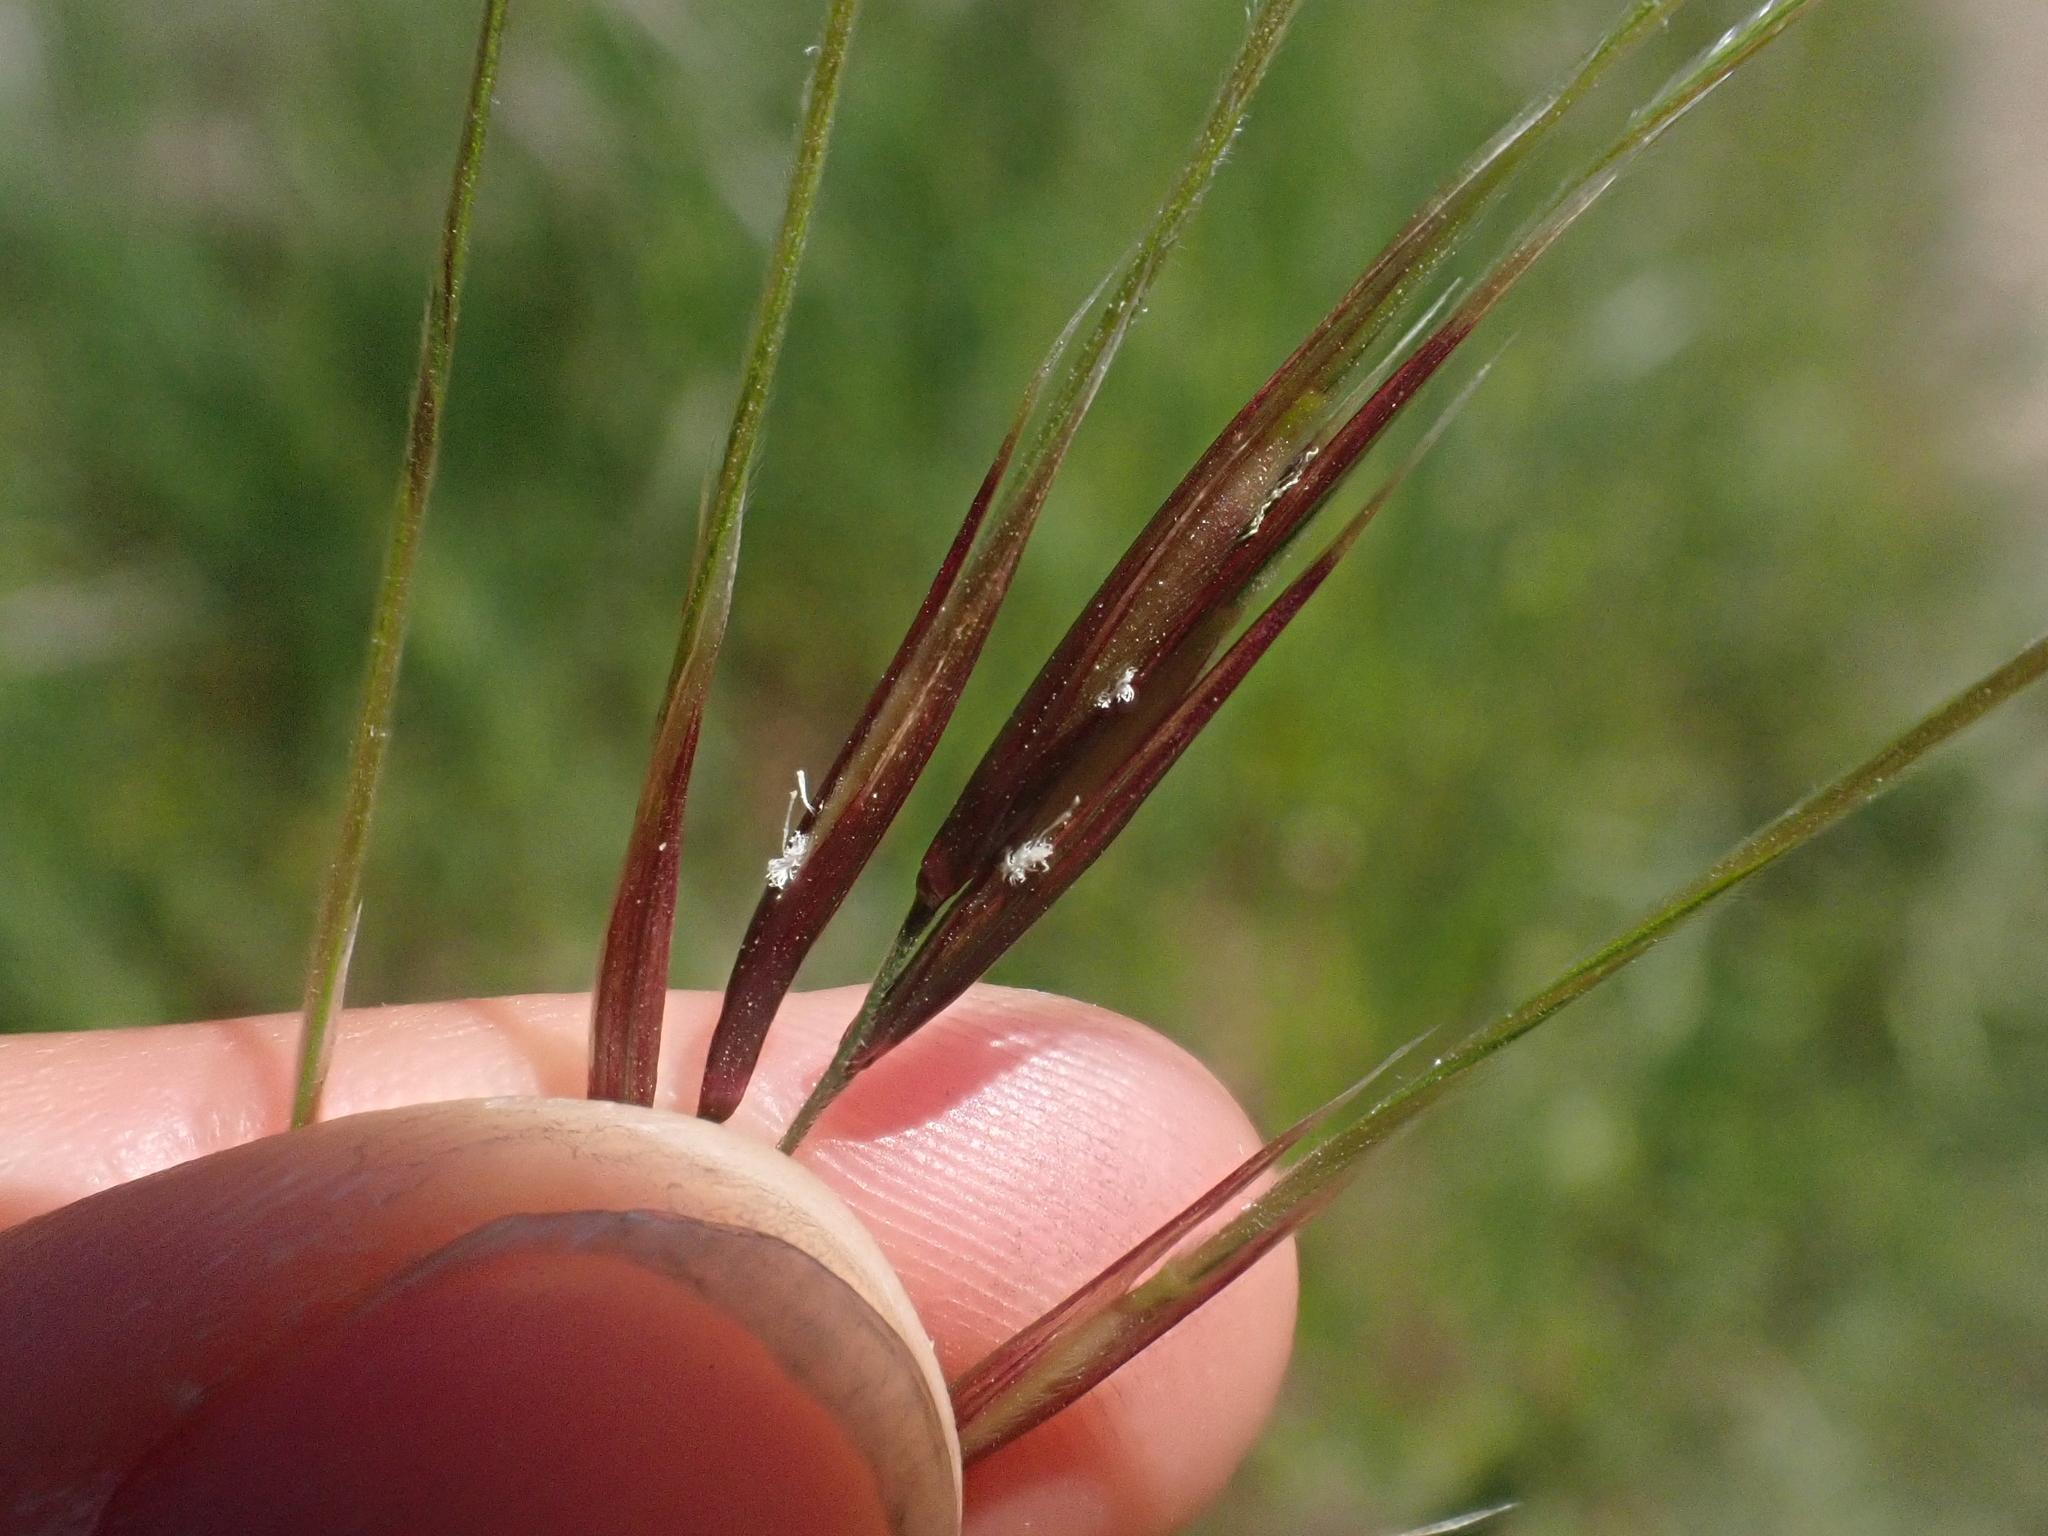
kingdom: Plantae
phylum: Tracheophyta
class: Liliopsida
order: Poales
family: Poaceae
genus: Nassella
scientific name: Nassella pulchra
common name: Purple needlegrass
